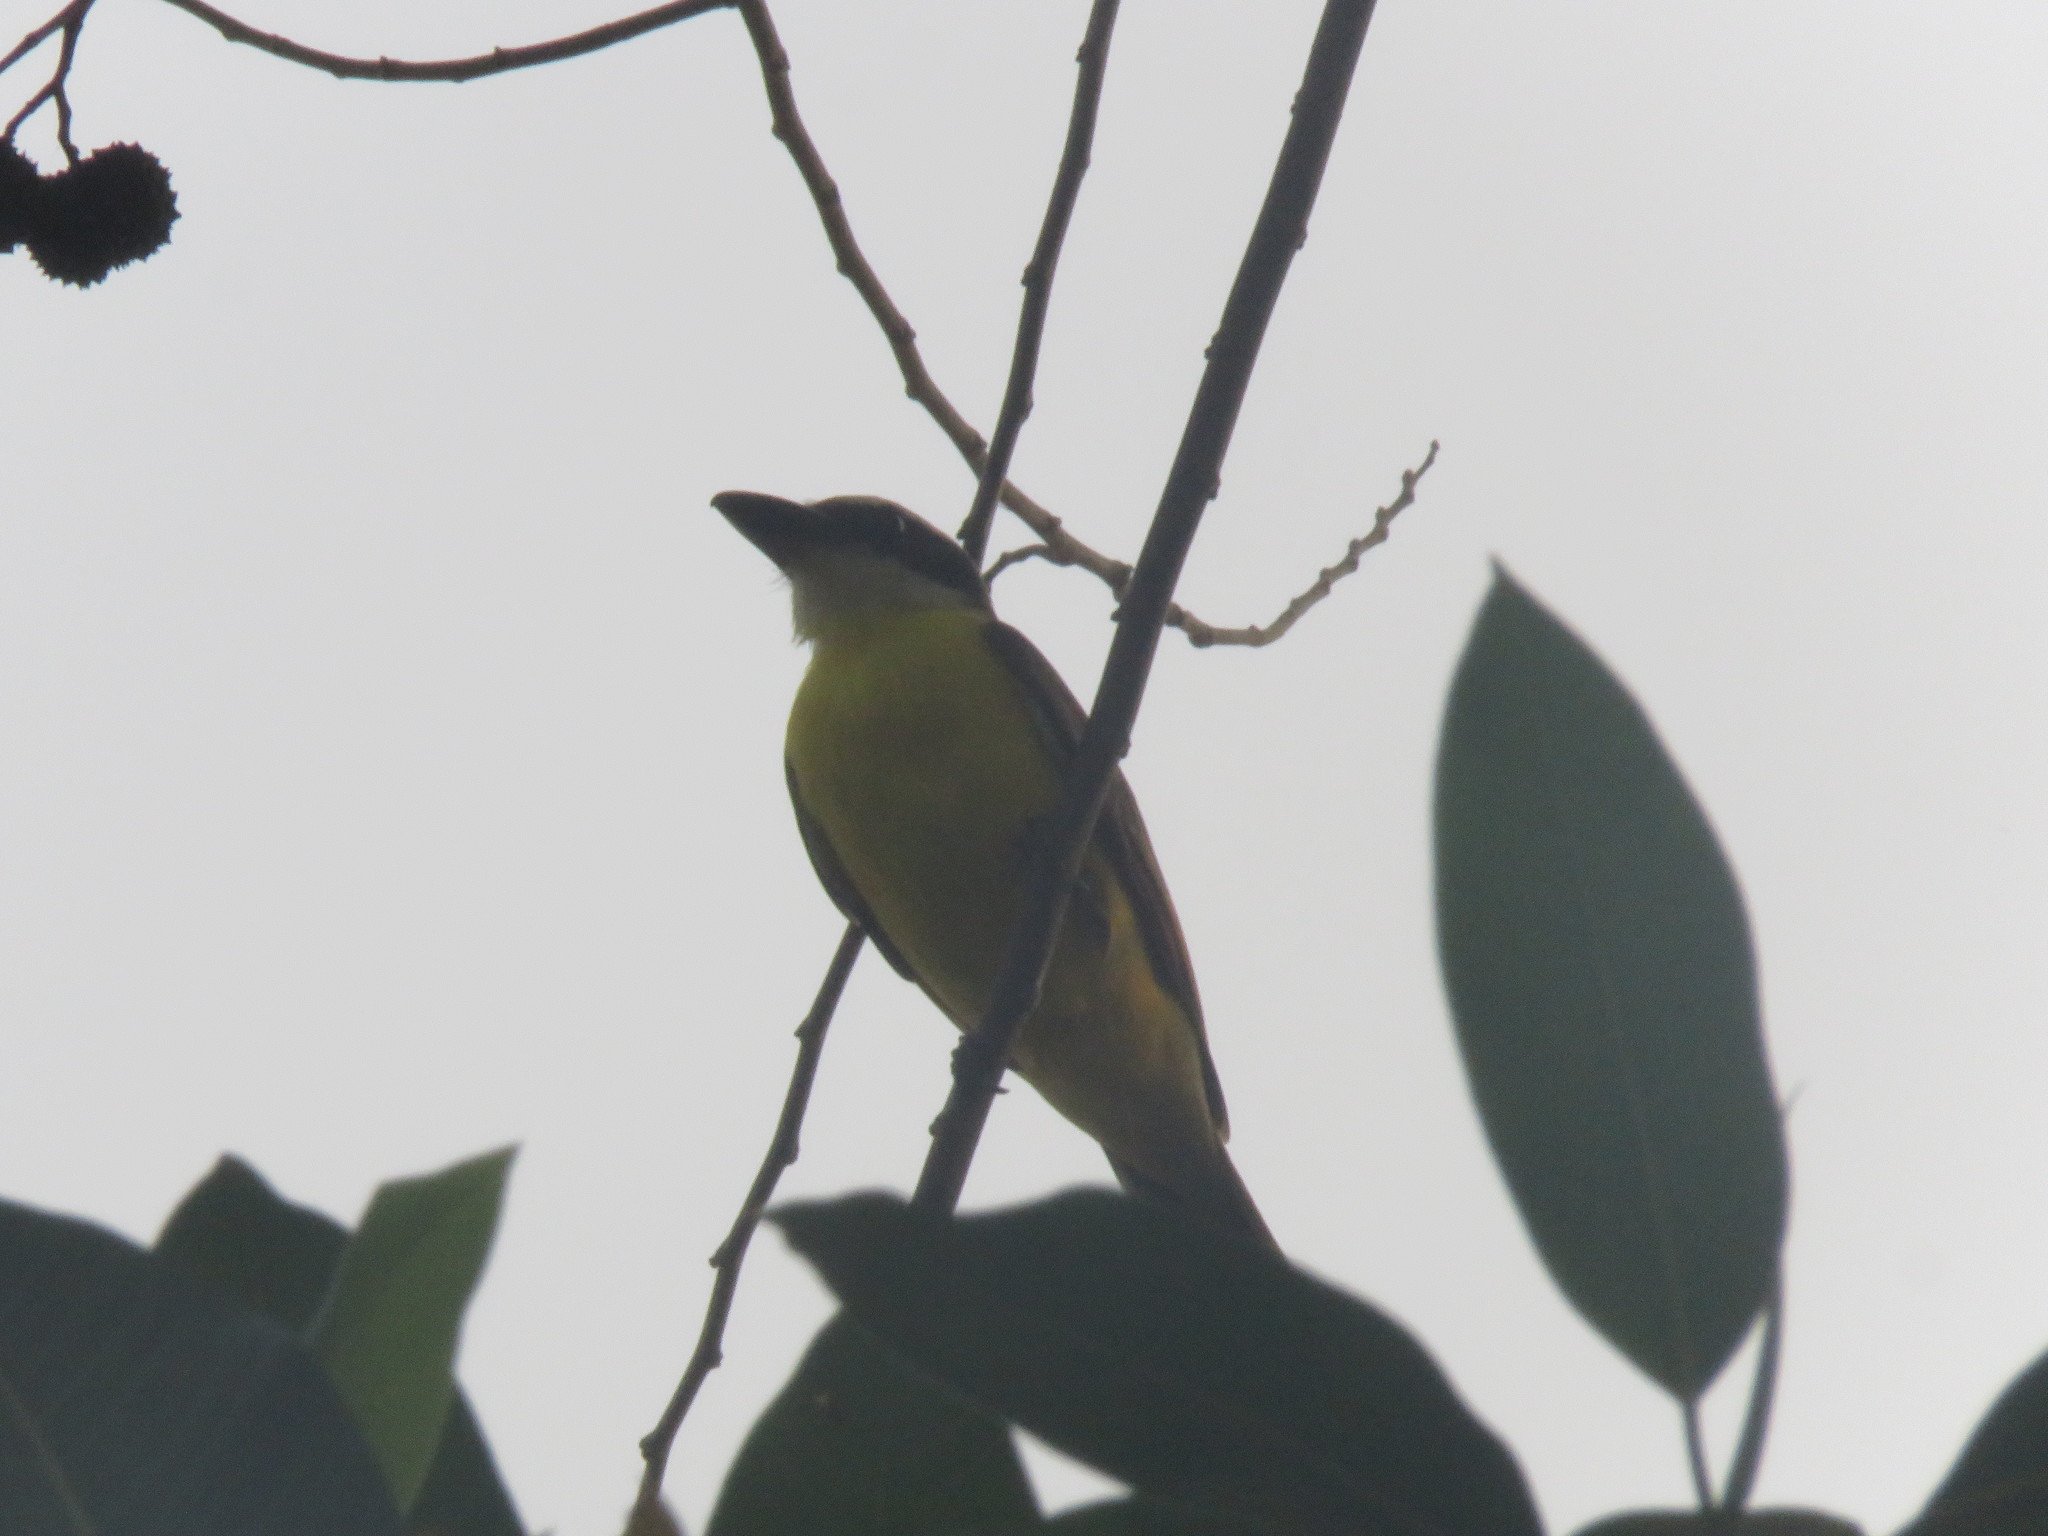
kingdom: Animalia
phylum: Chordata
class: Aves
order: Passeriformes
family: Tyrannidae
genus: Megarynchus
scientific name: Megarynchus pitangua
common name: Boat-billed flycatcher
